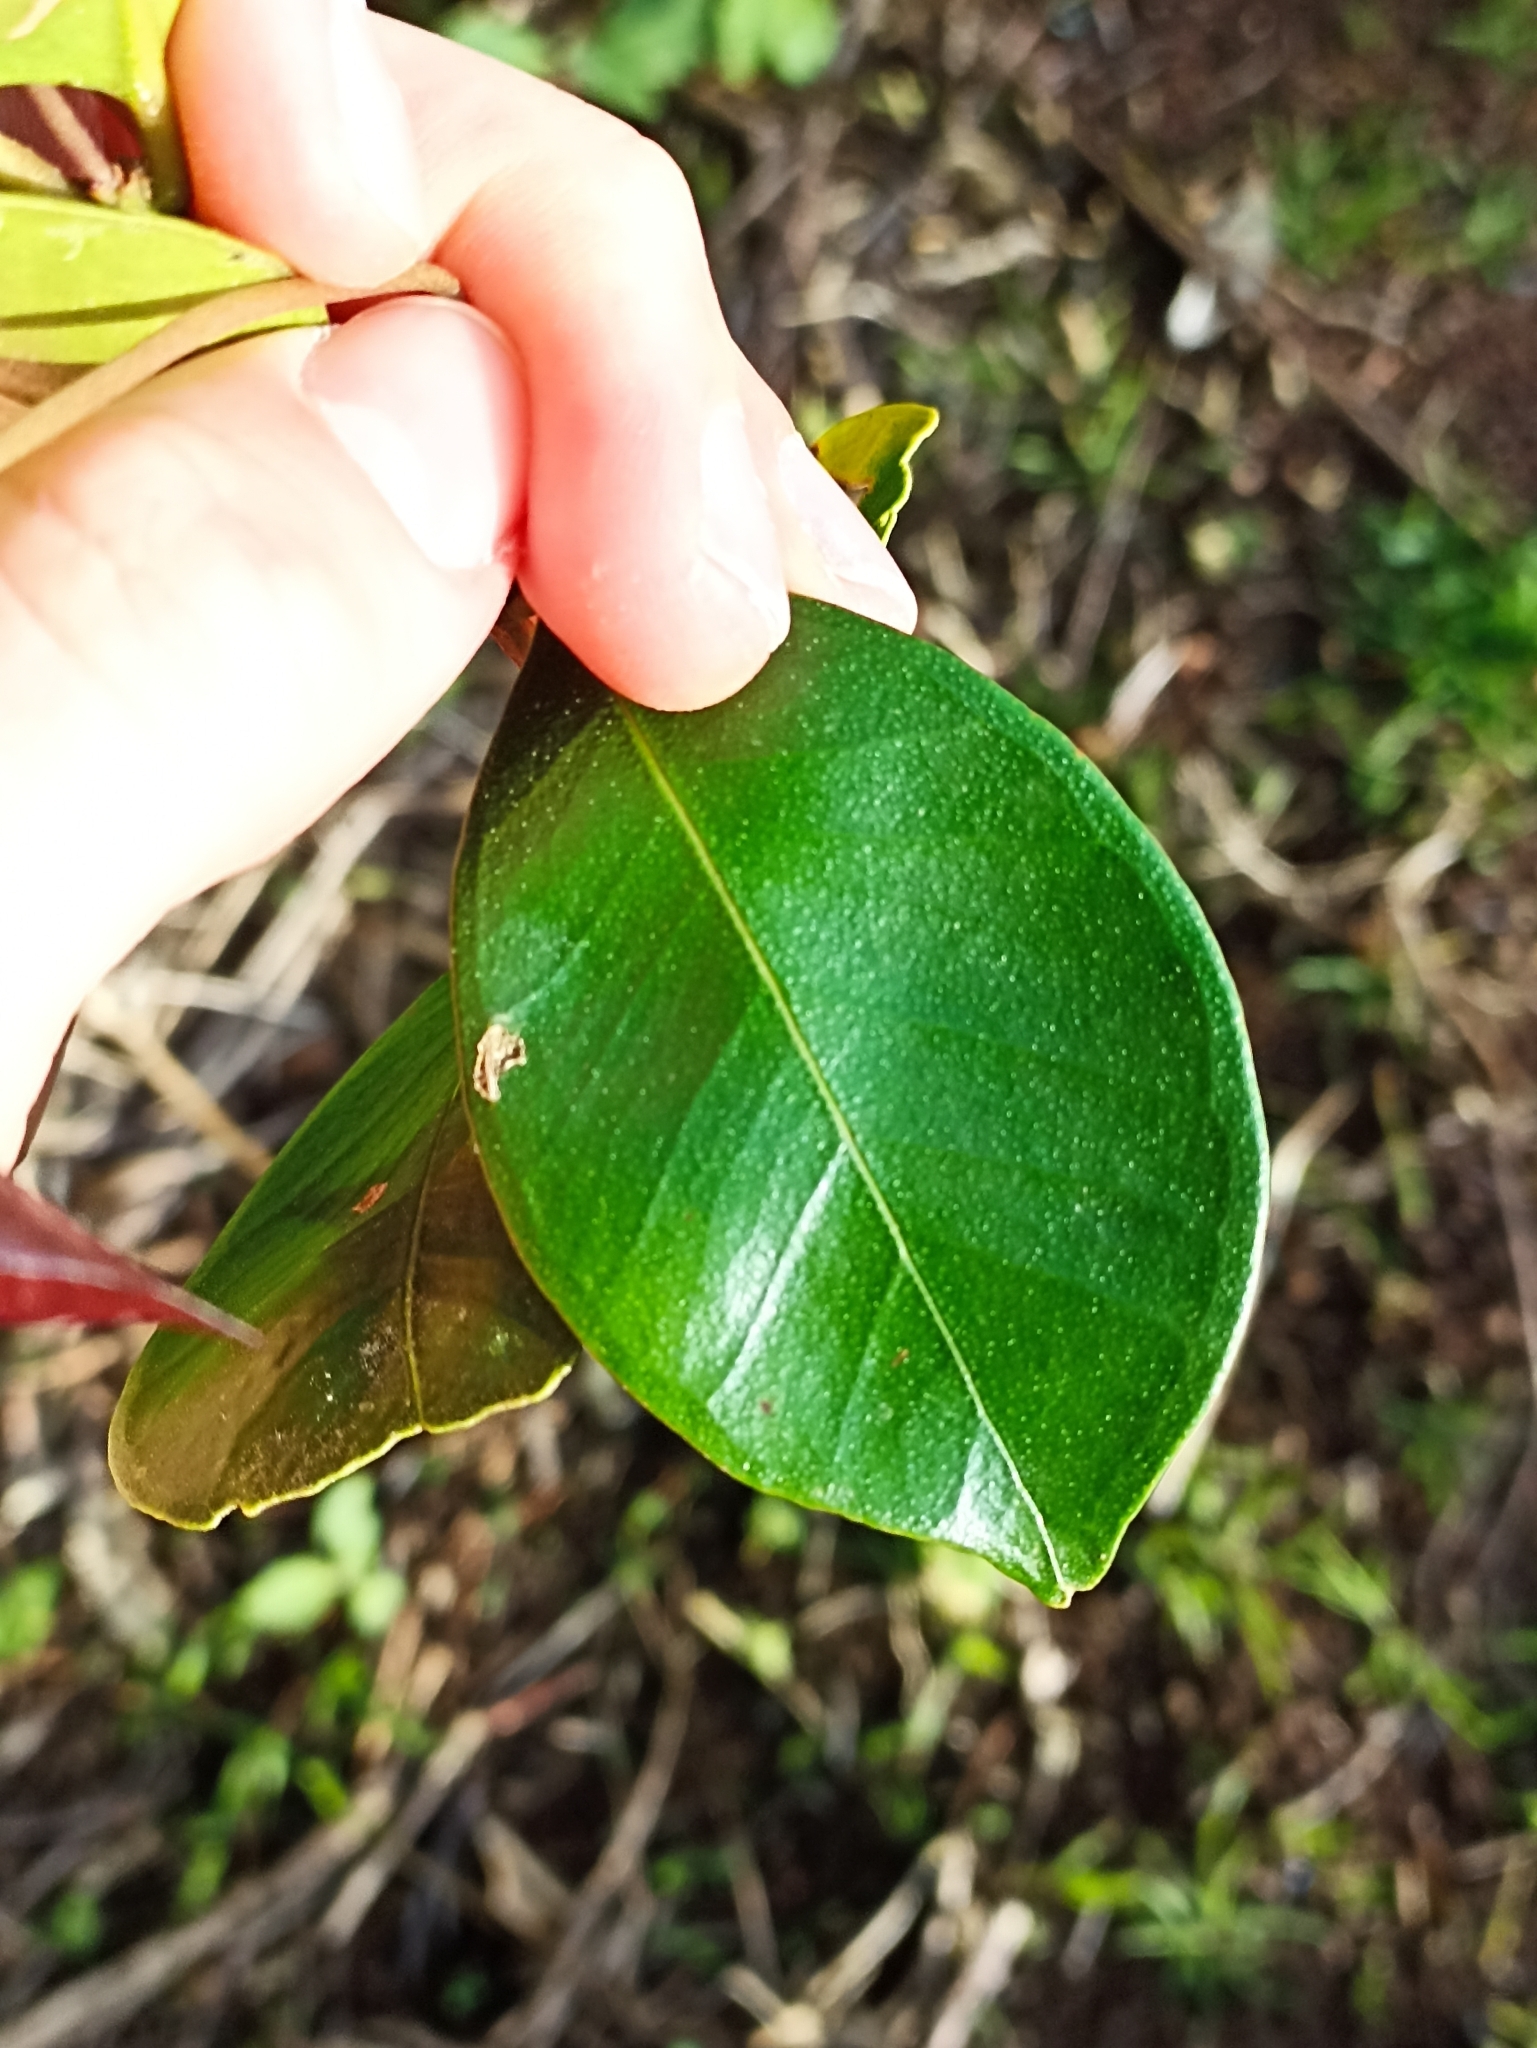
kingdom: Plantae
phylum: Tracheophyta
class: Magnoliopsida
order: Myrtales
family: Myrtaceae
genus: Syzygium
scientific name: Syzygium smithii
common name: Lilly-pilly
